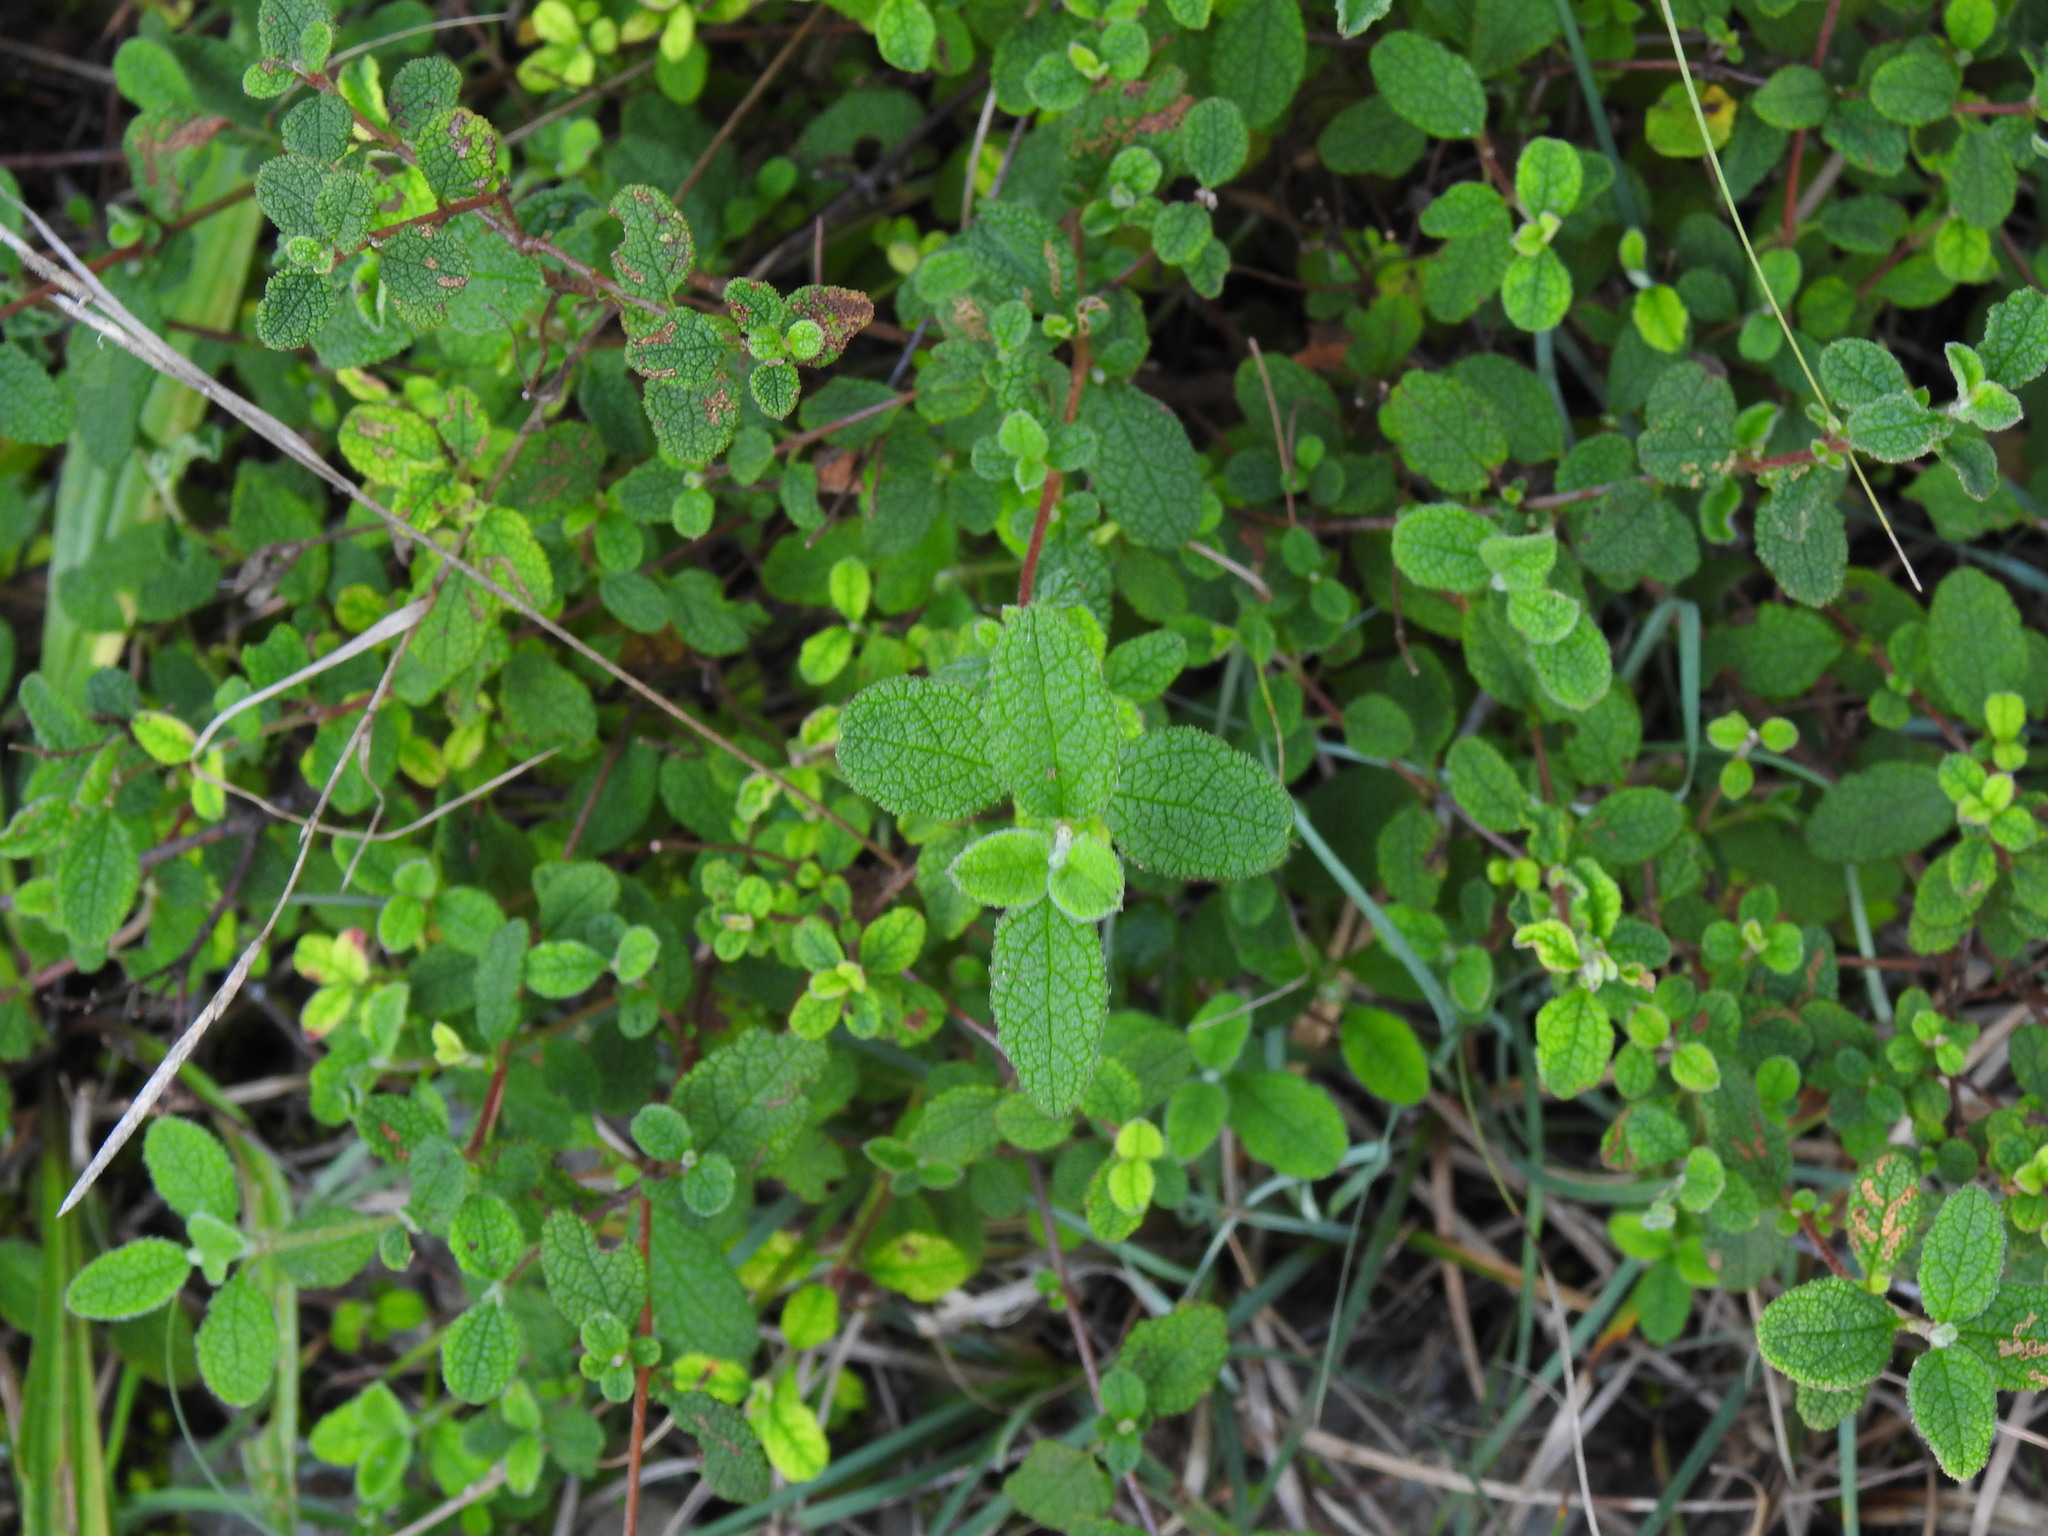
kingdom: Plantae
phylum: Tracheophyta
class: Magnoliopsida
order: Malvales
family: Cistaceae
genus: Cistus
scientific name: Cistus salviifolius
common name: Salvia cistus
